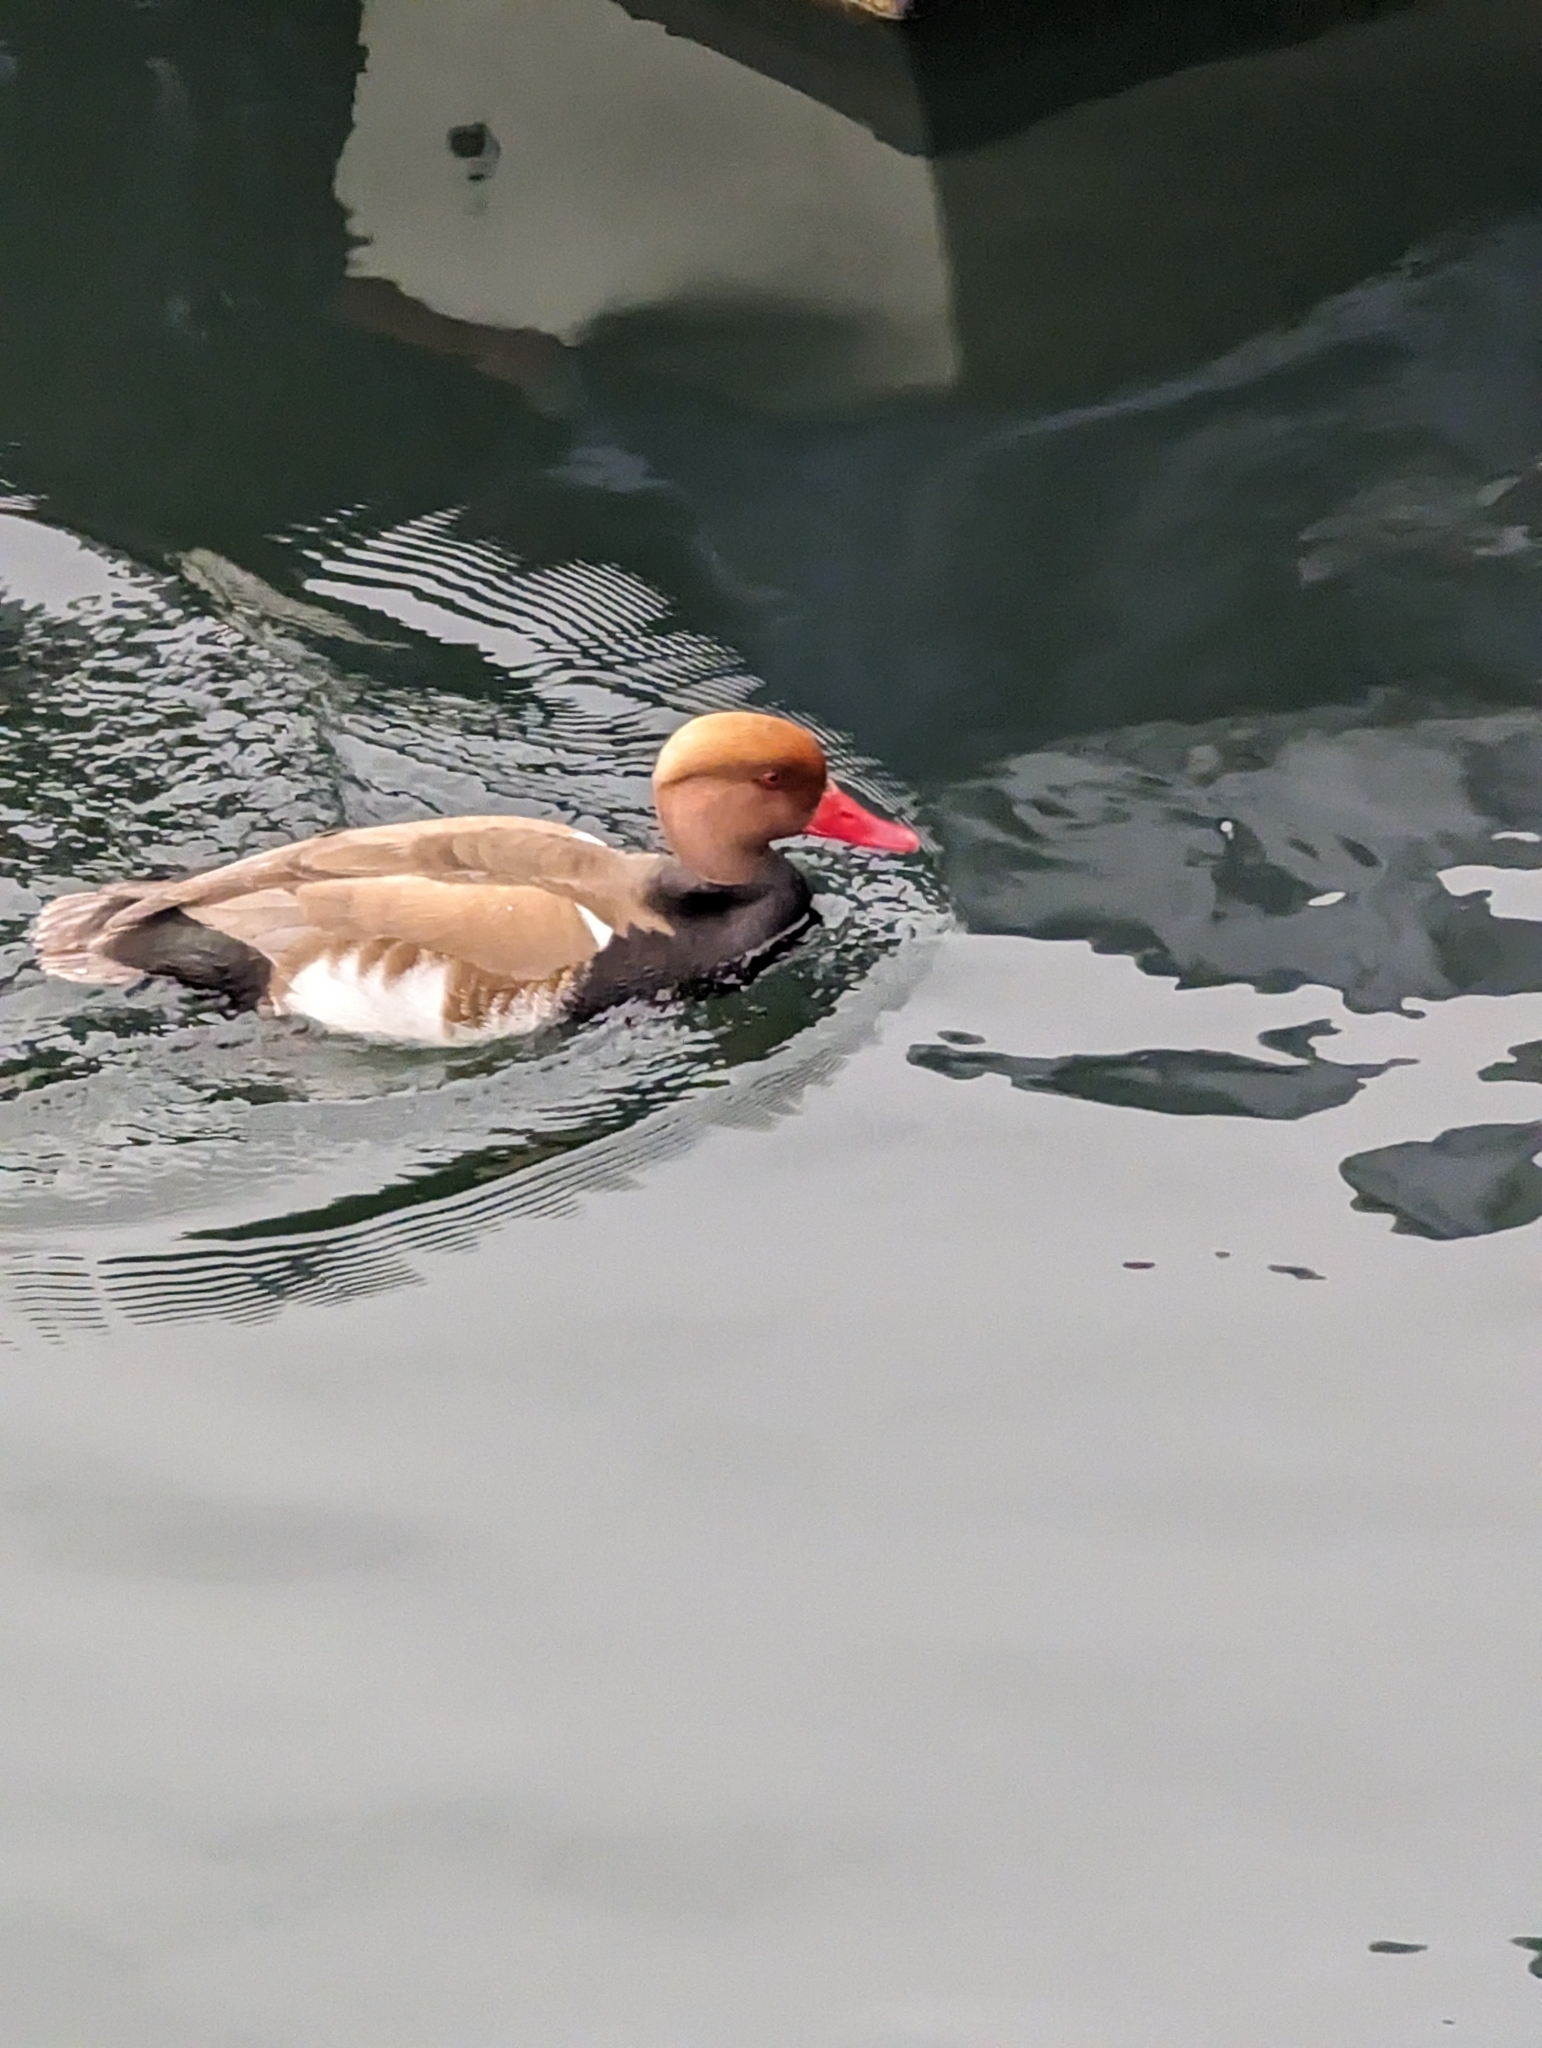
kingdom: Animalia
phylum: Chordata
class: Aves
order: Anseriformes
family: Anatidae
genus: Netta
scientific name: Netta rufina
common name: Red-crested pochard
